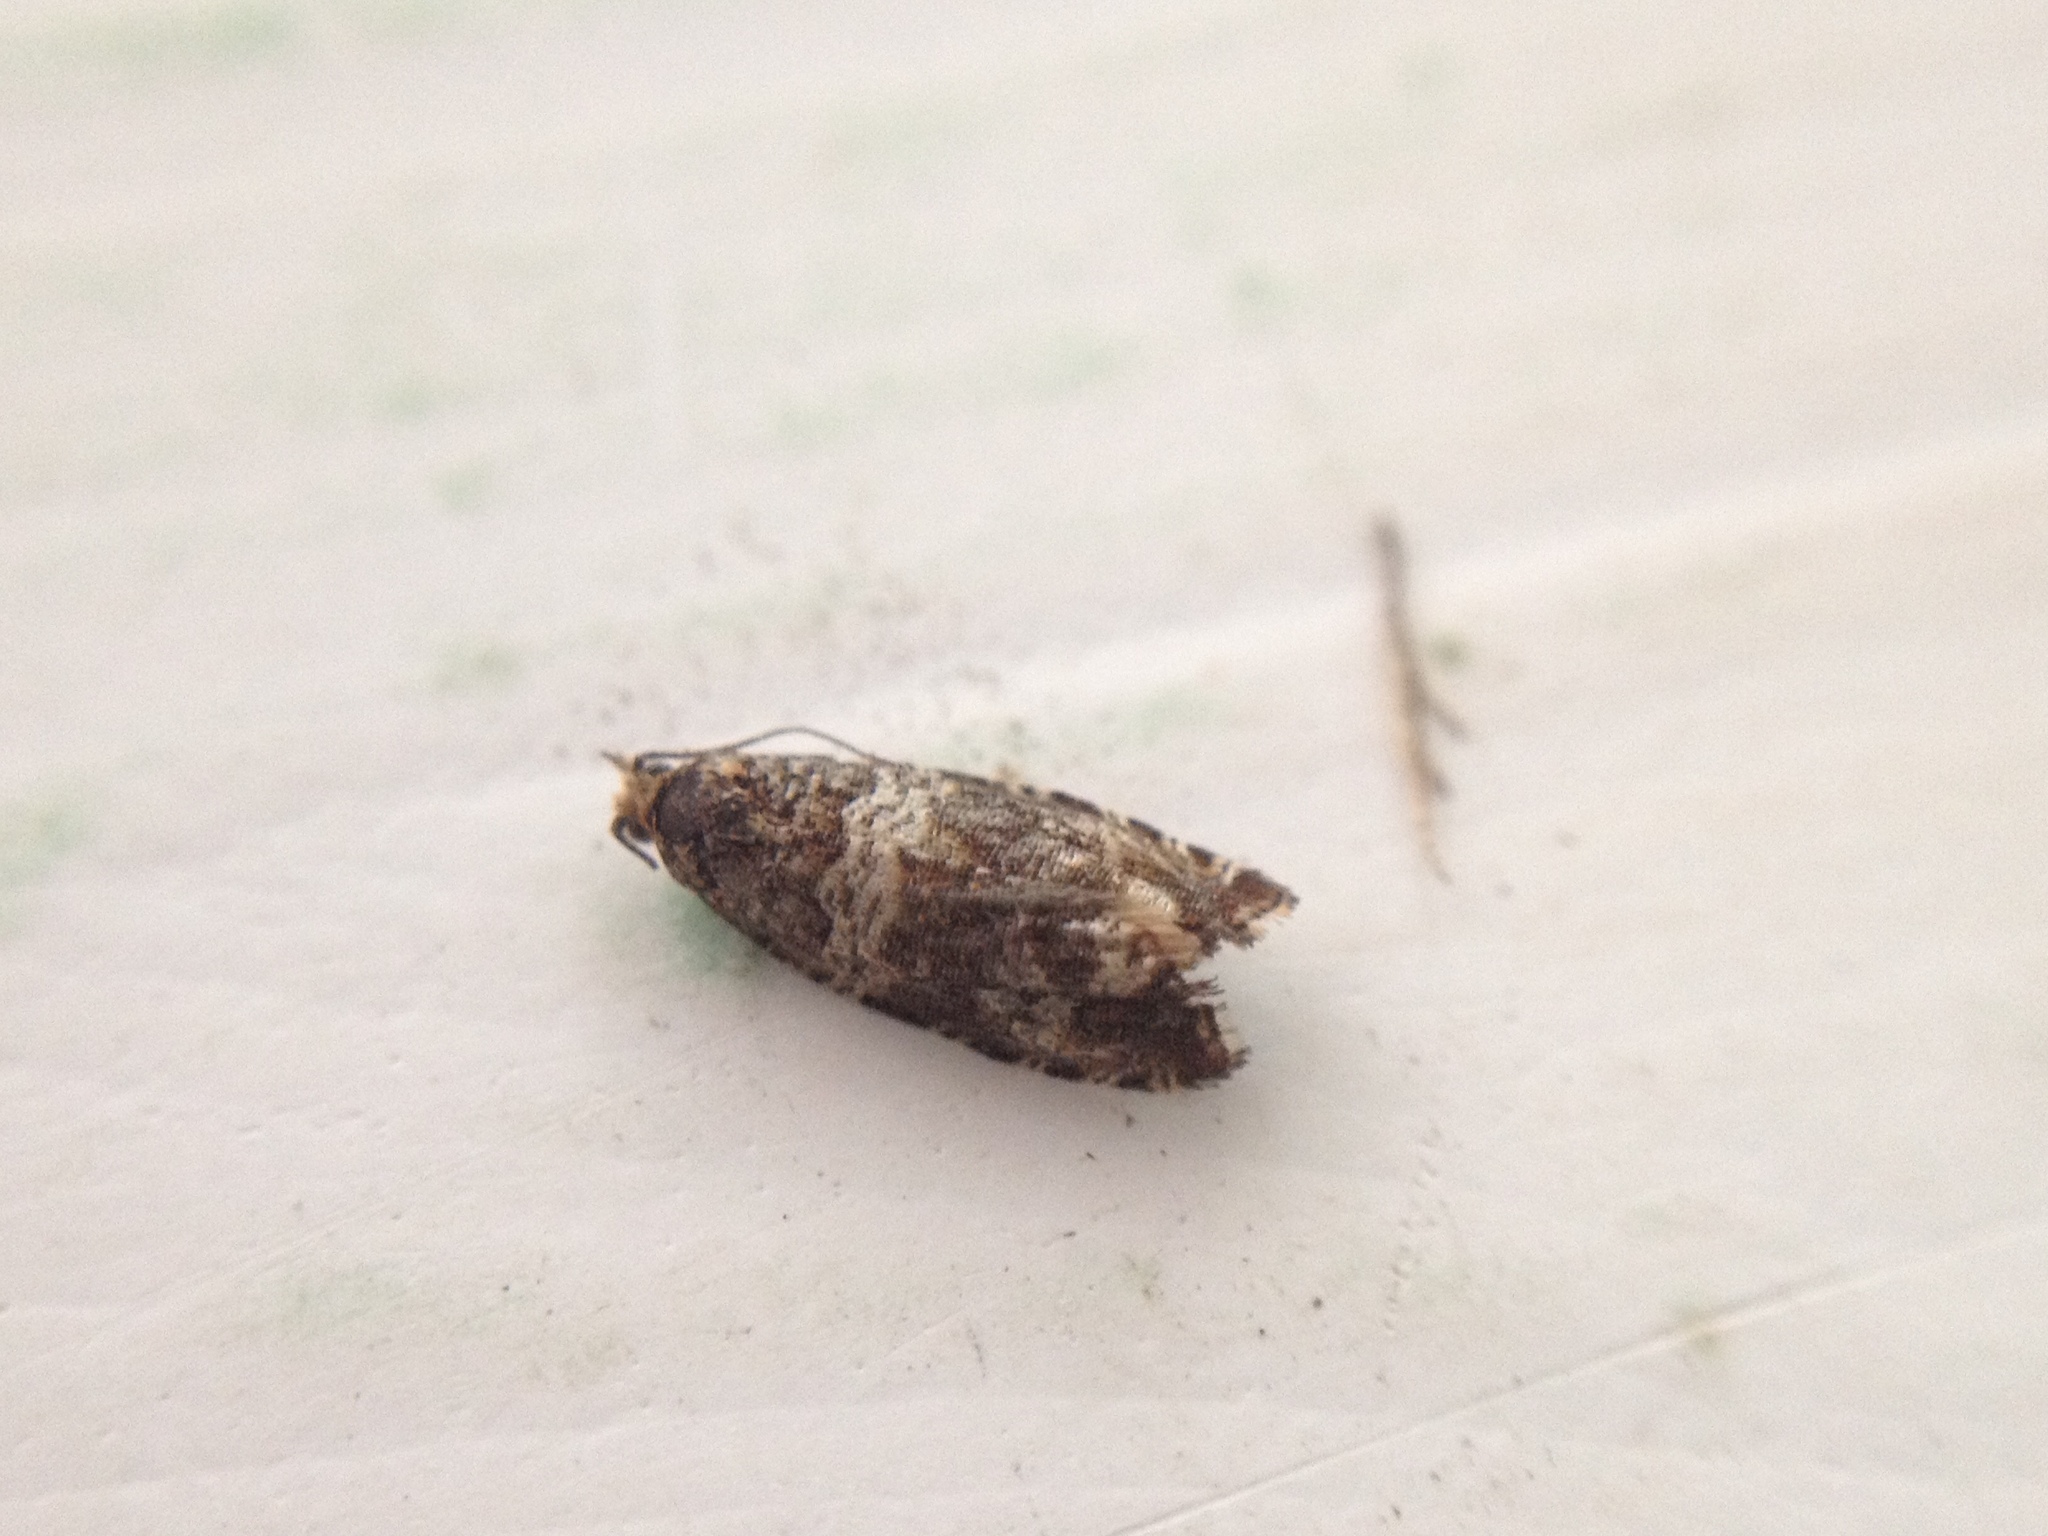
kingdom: Animalia
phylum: Arthropoda
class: Insecta
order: Lepidoptera
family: Tortricidae
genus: Syricoris
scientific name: Syricoris lacunana
